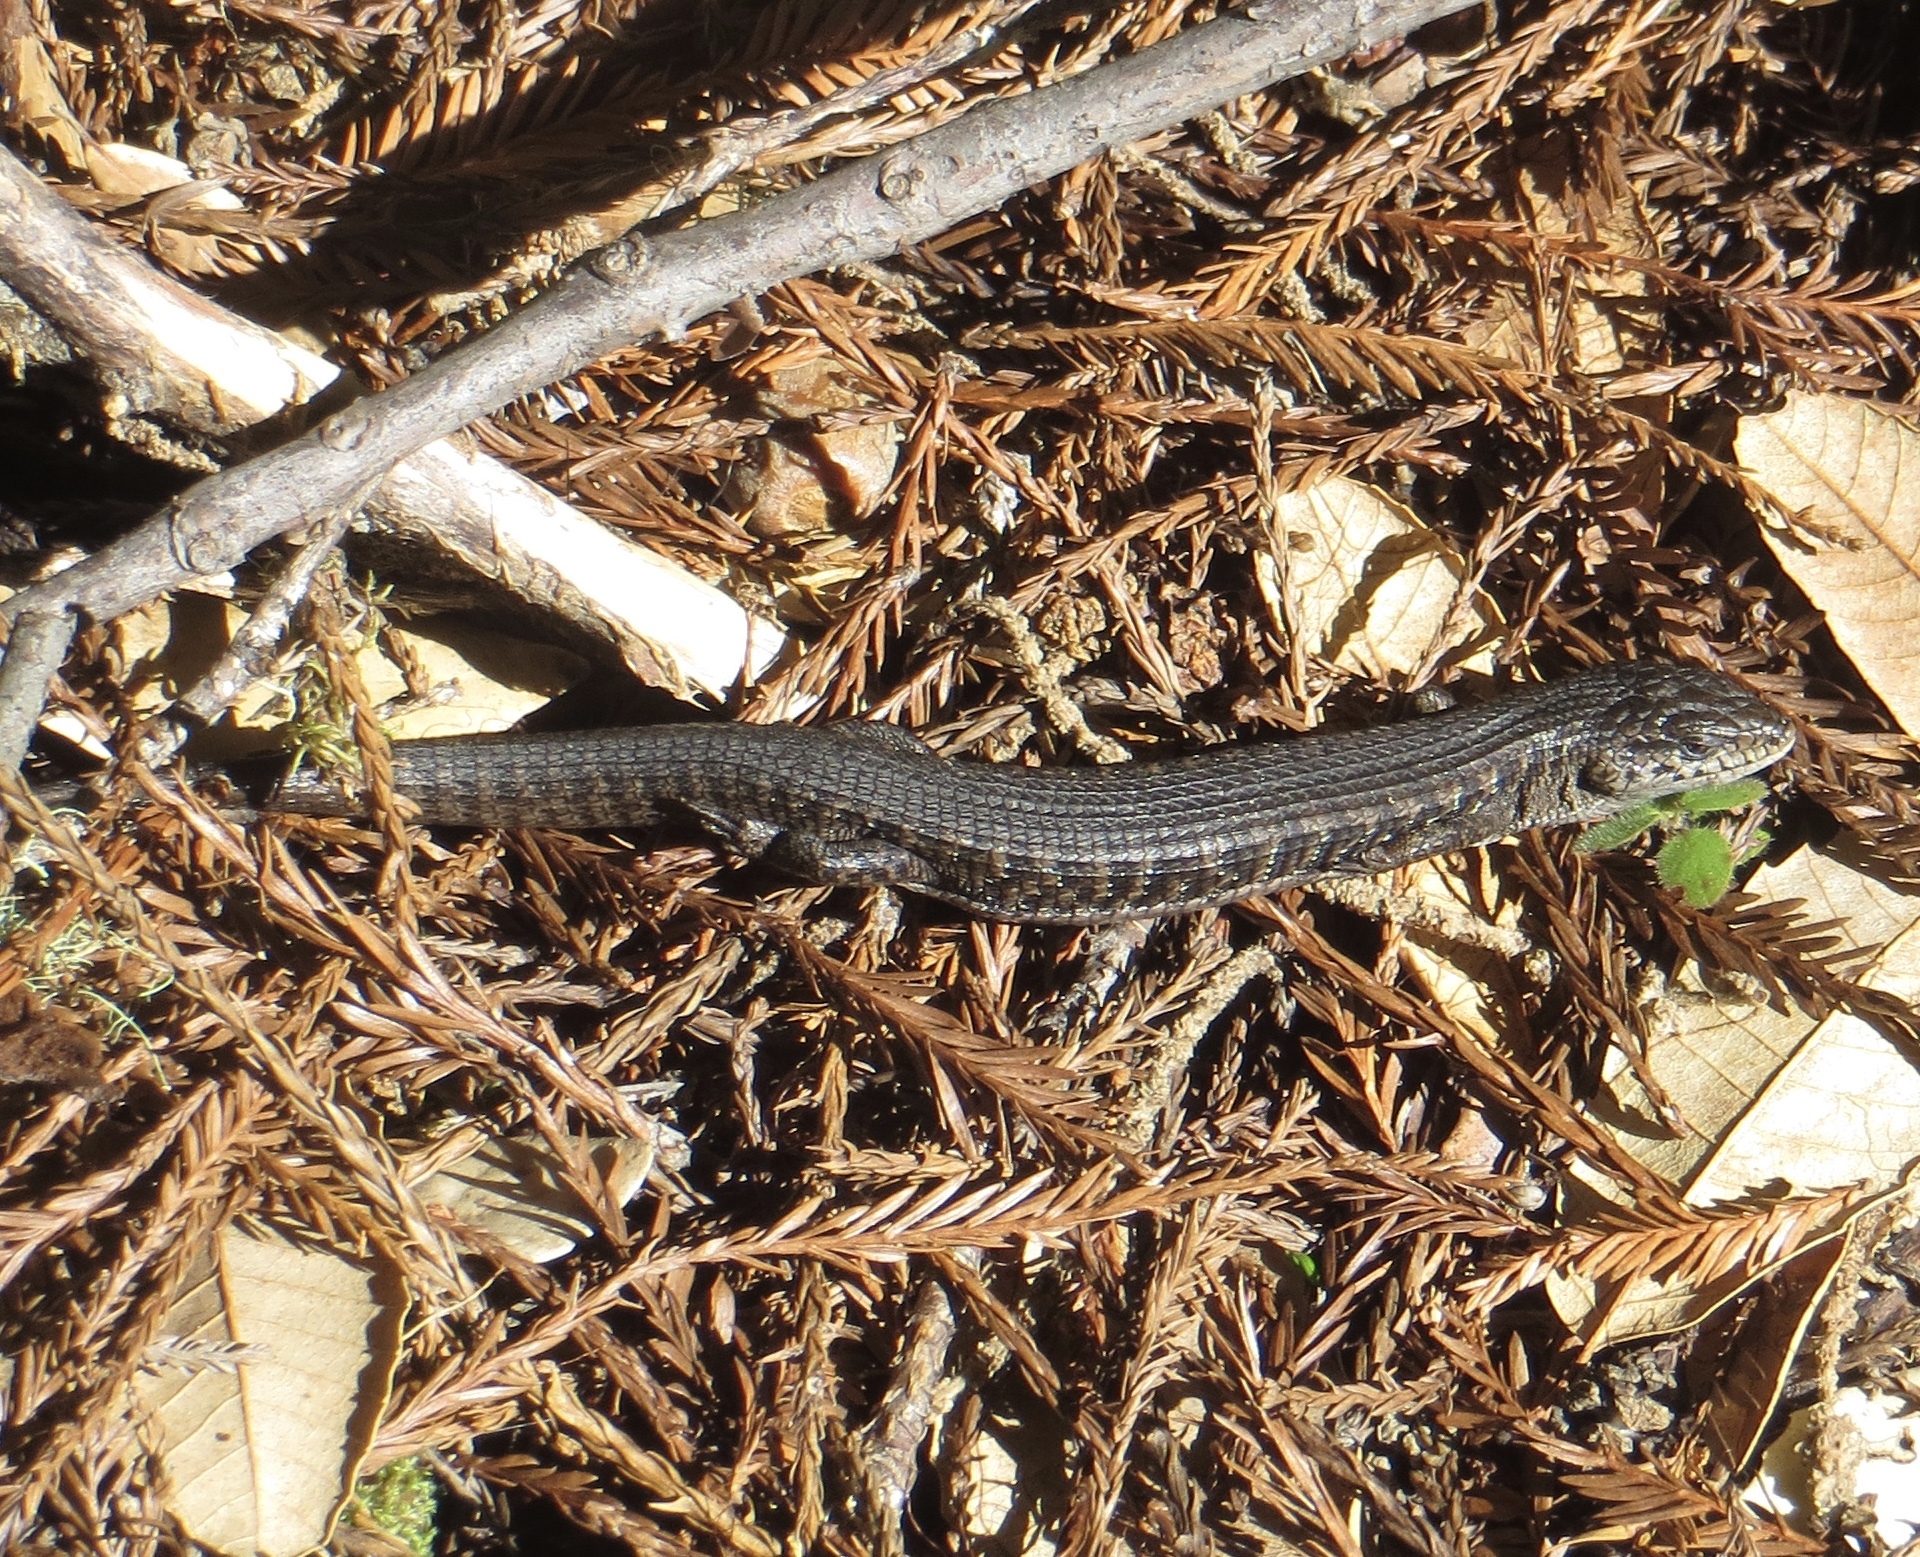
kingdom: Animalia
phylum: Chordata
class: Squamata
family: Anguidae
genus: Elgaria
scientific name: Elgaria coerulea
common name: Northern alligator lizard
